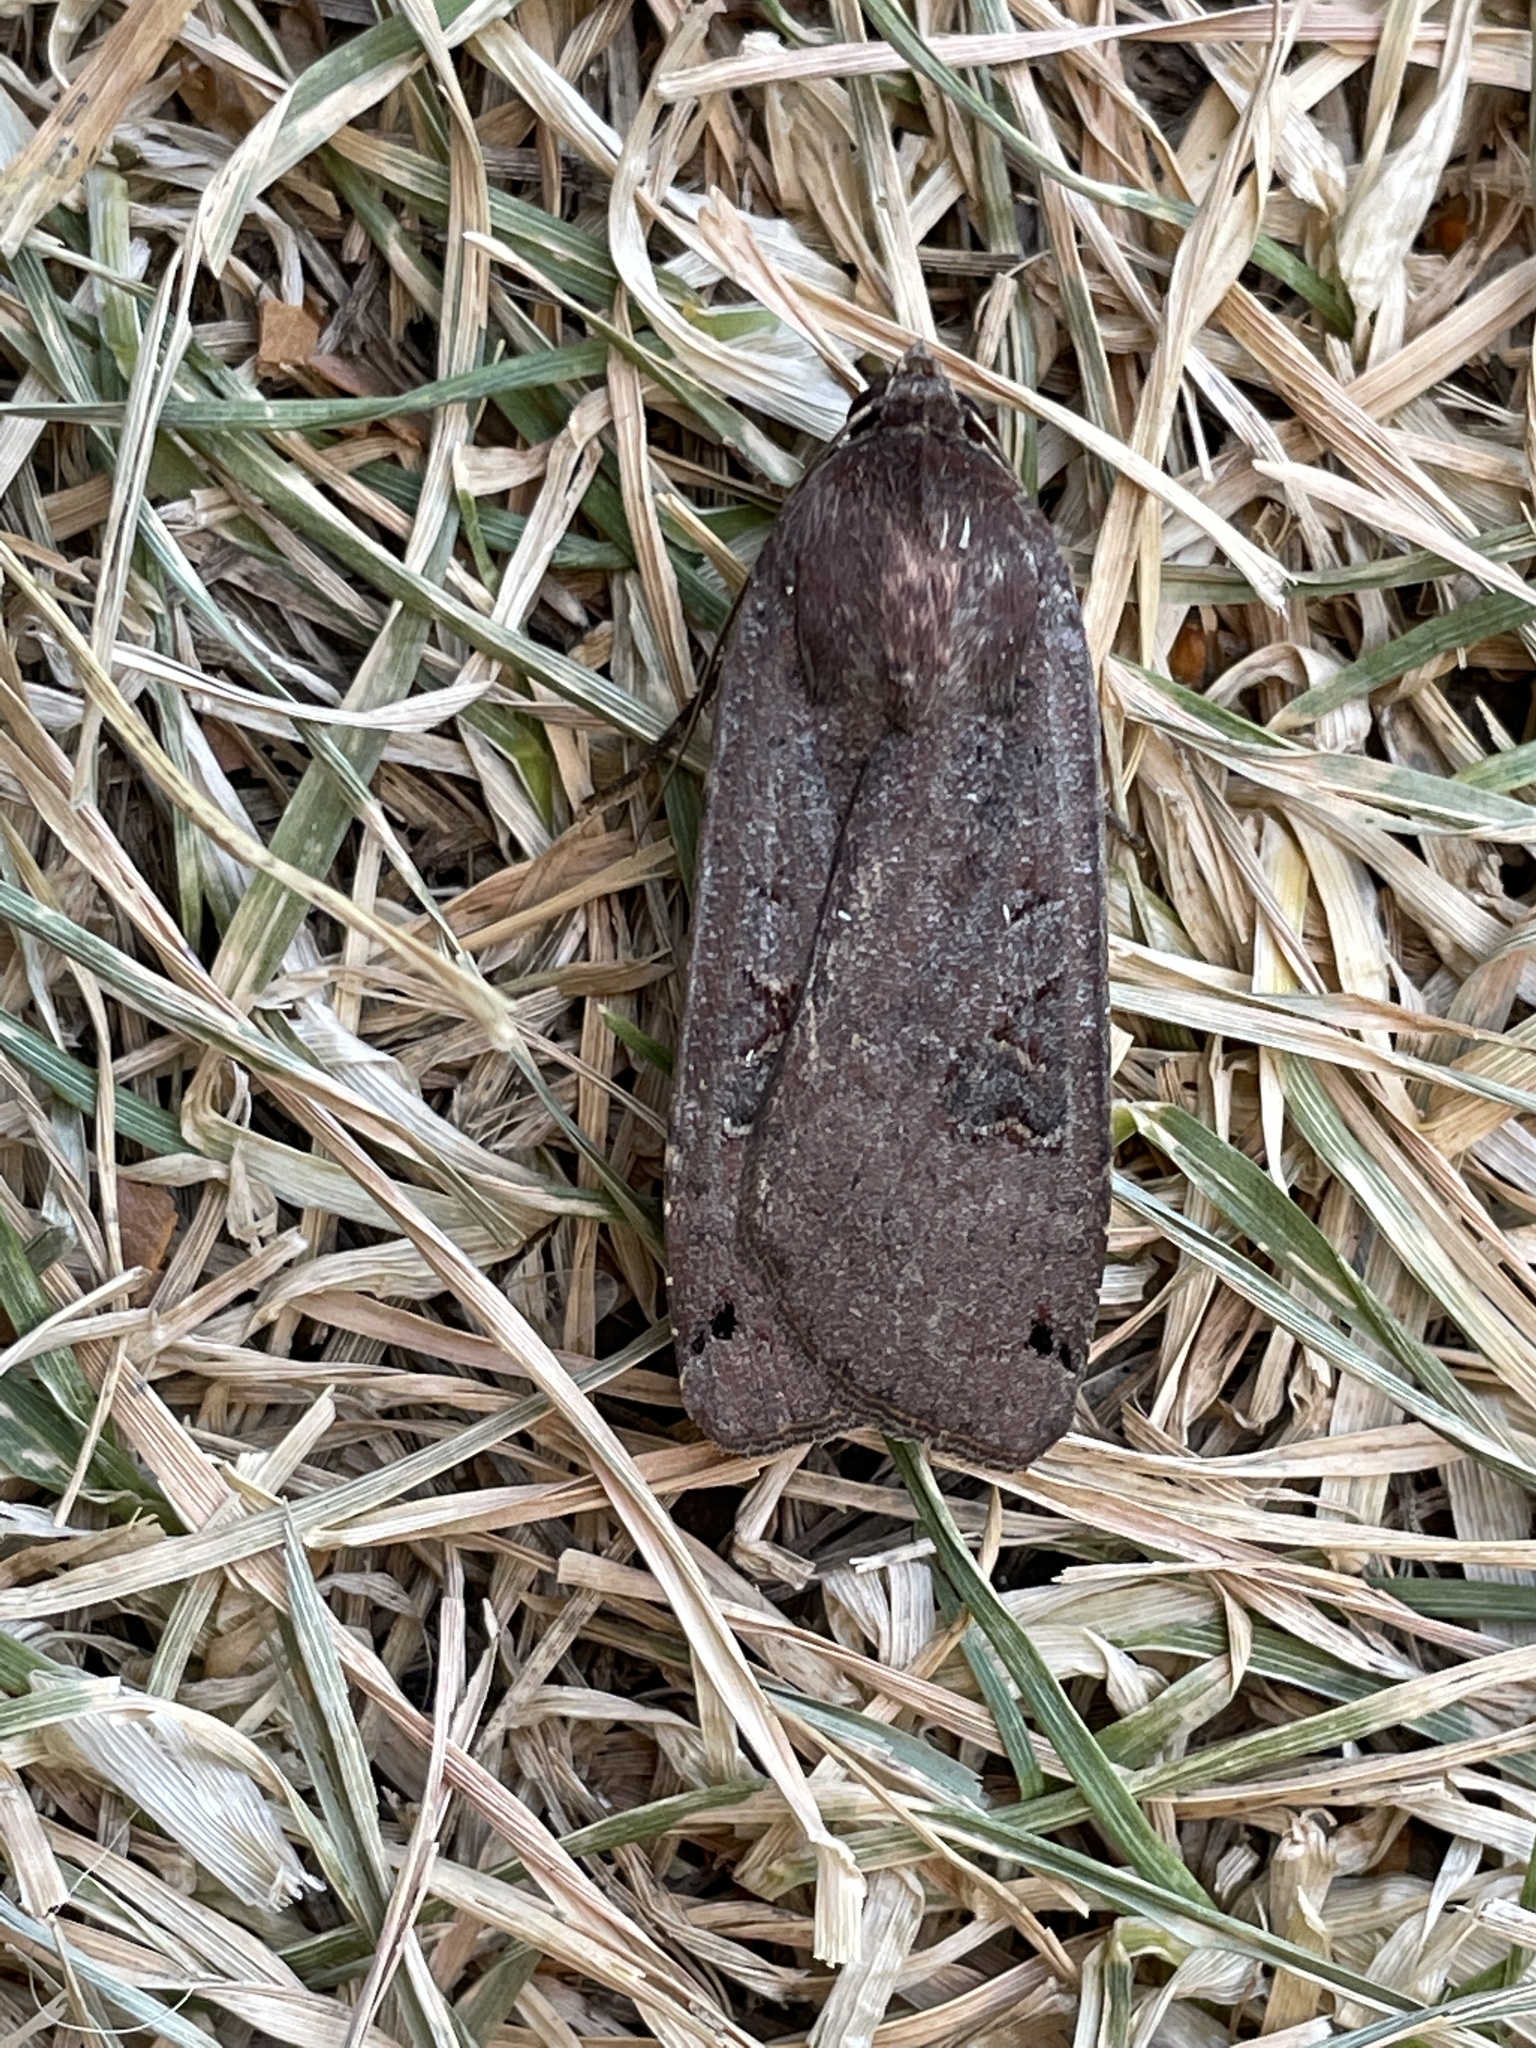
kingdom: Animalia
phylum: Arthropoda
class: Insecta
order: Lepidoptera
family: Noctuidae
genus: Noctua
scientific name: Noctua pronuba
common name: Large yellow underwing
